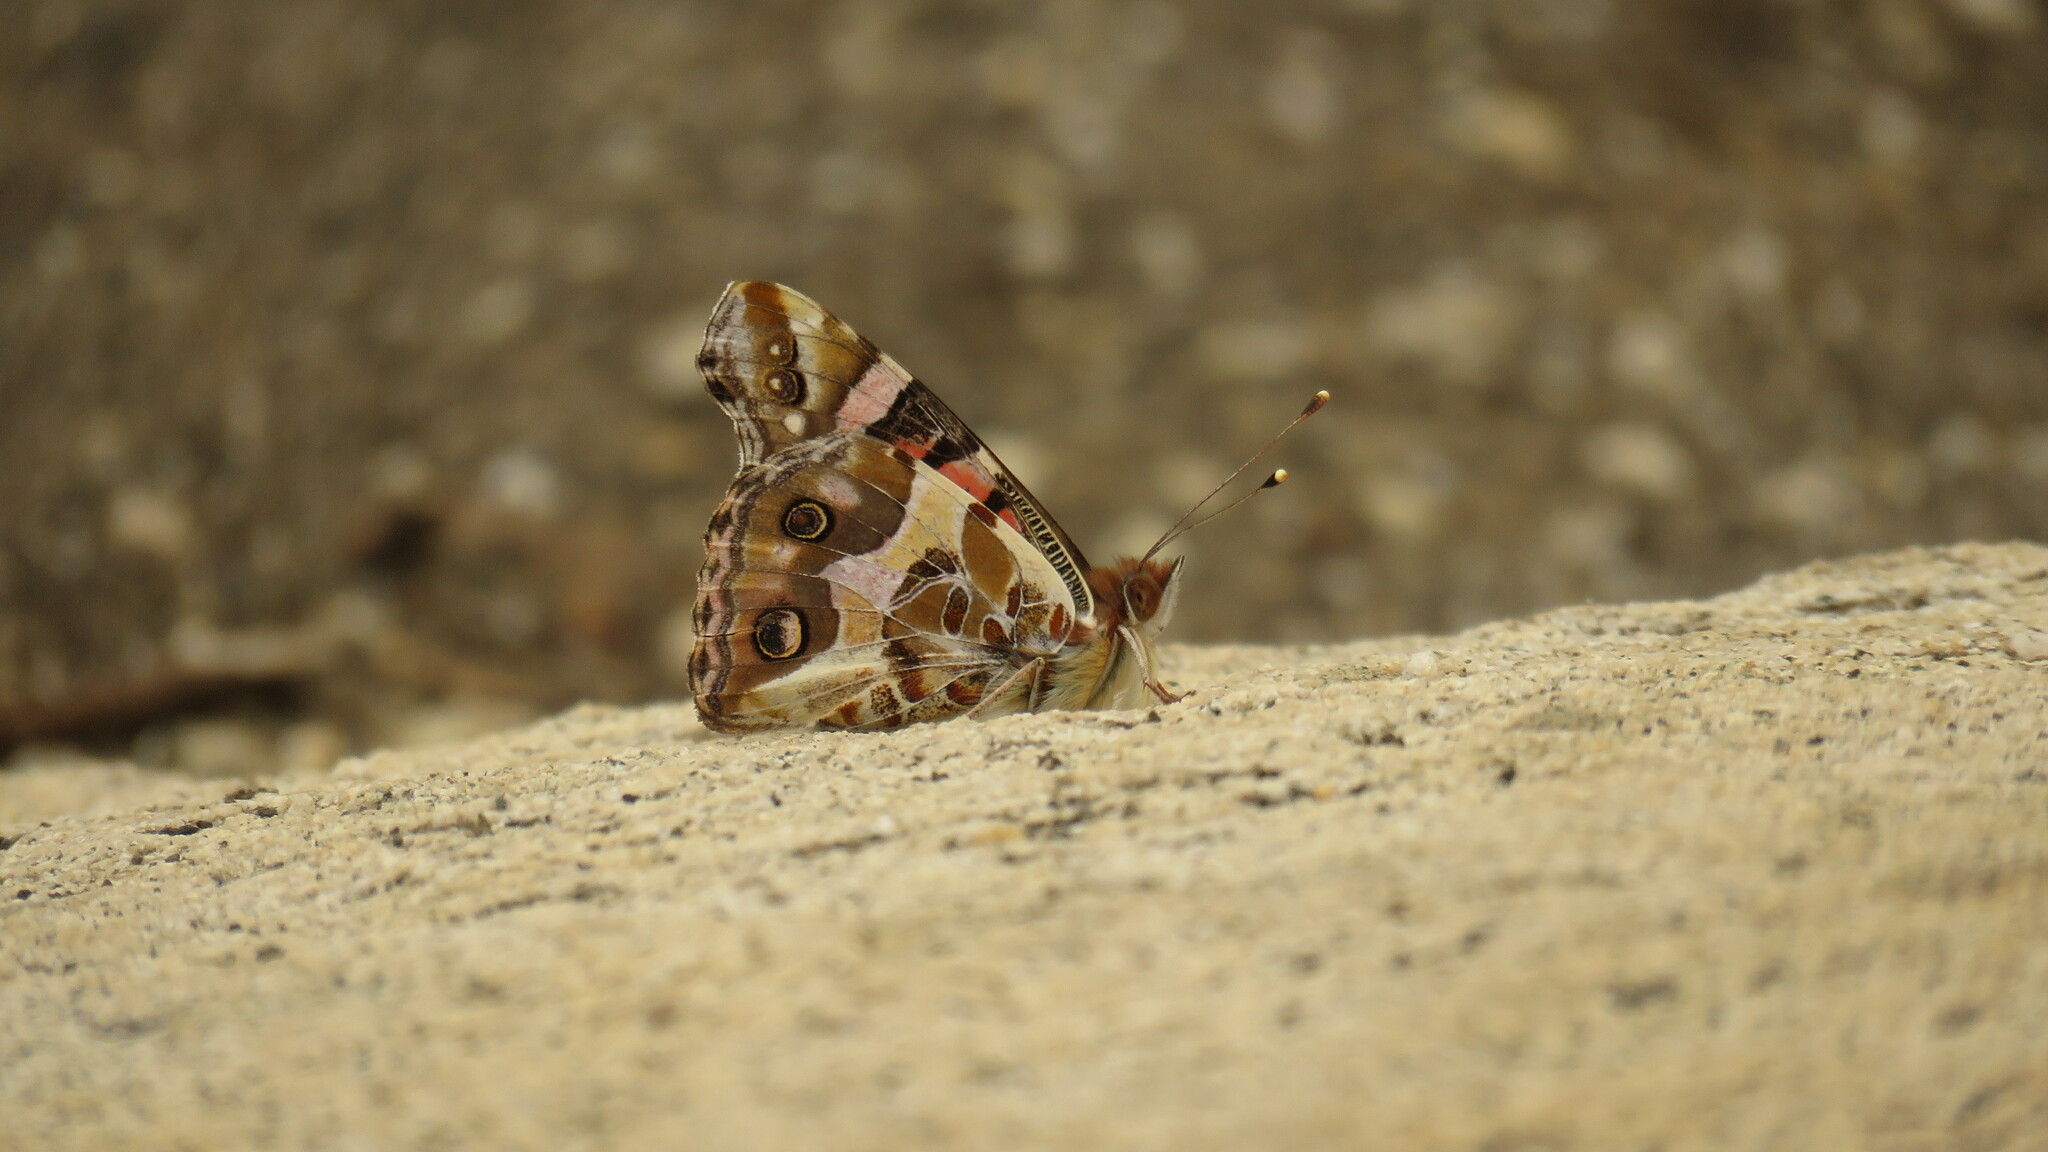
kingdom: Animalia
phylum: Arthropoda
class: Insecta
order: Lepidoptera
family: Nymphalidae
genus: Vanessa
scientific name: Vanessa terpsichore
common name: Chilean lady
